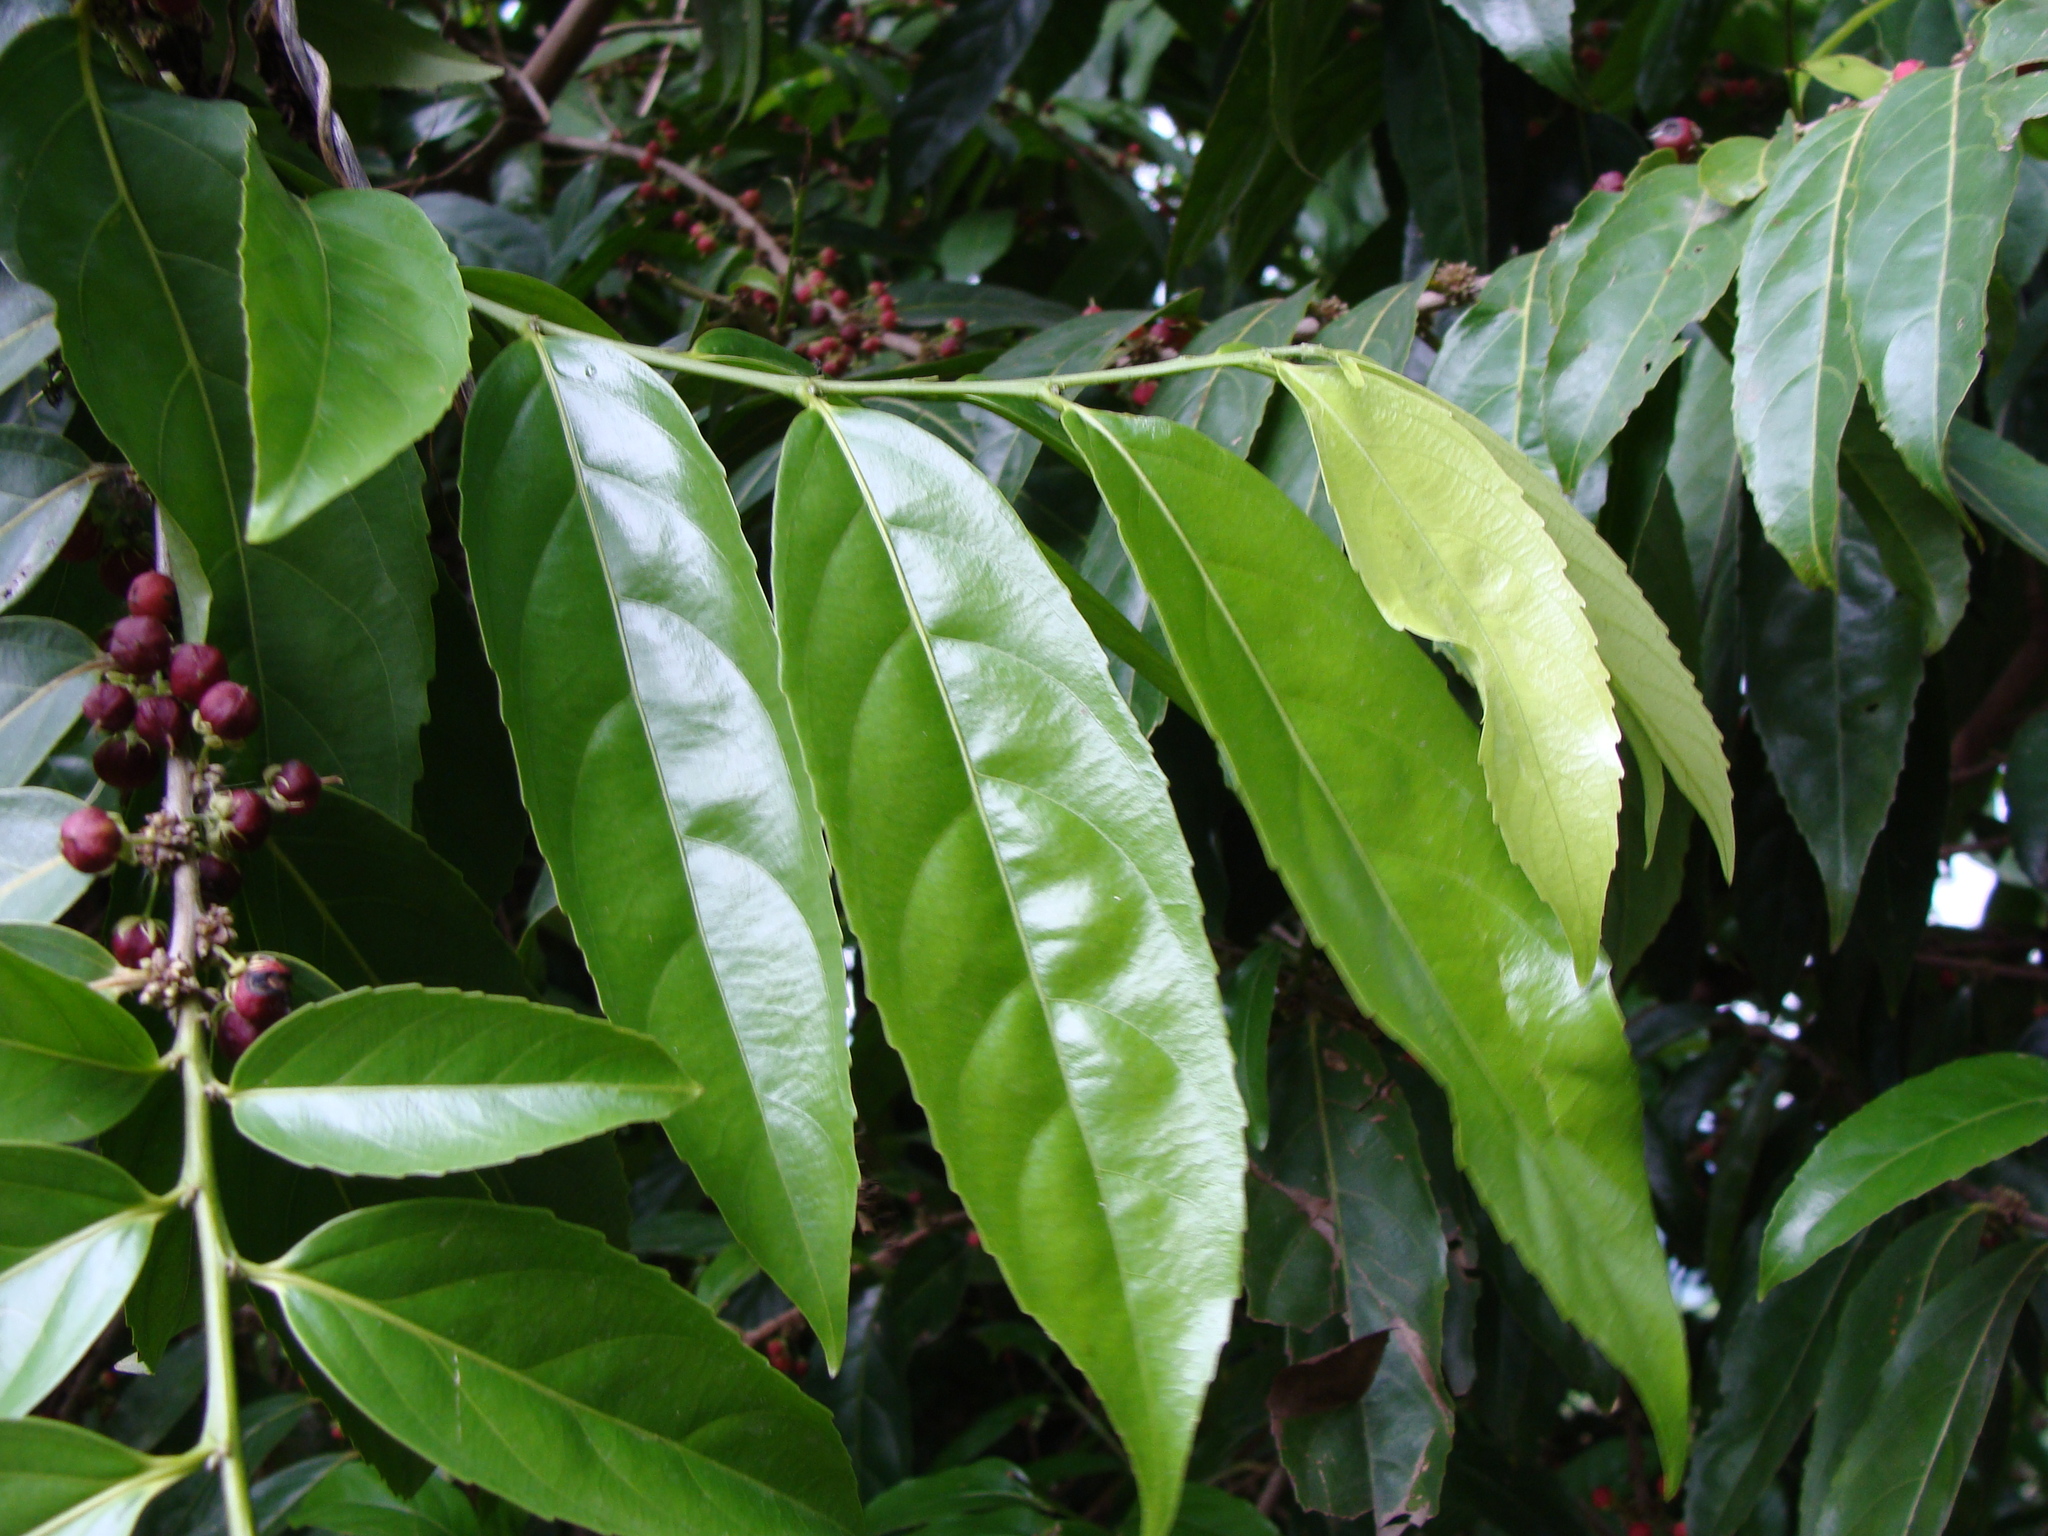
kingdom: Plantae
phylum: Tracheophyta
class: Magnoliopsida
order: Malpighiales
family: Salicaceae
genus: Piparea
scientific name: Piparea dentata
